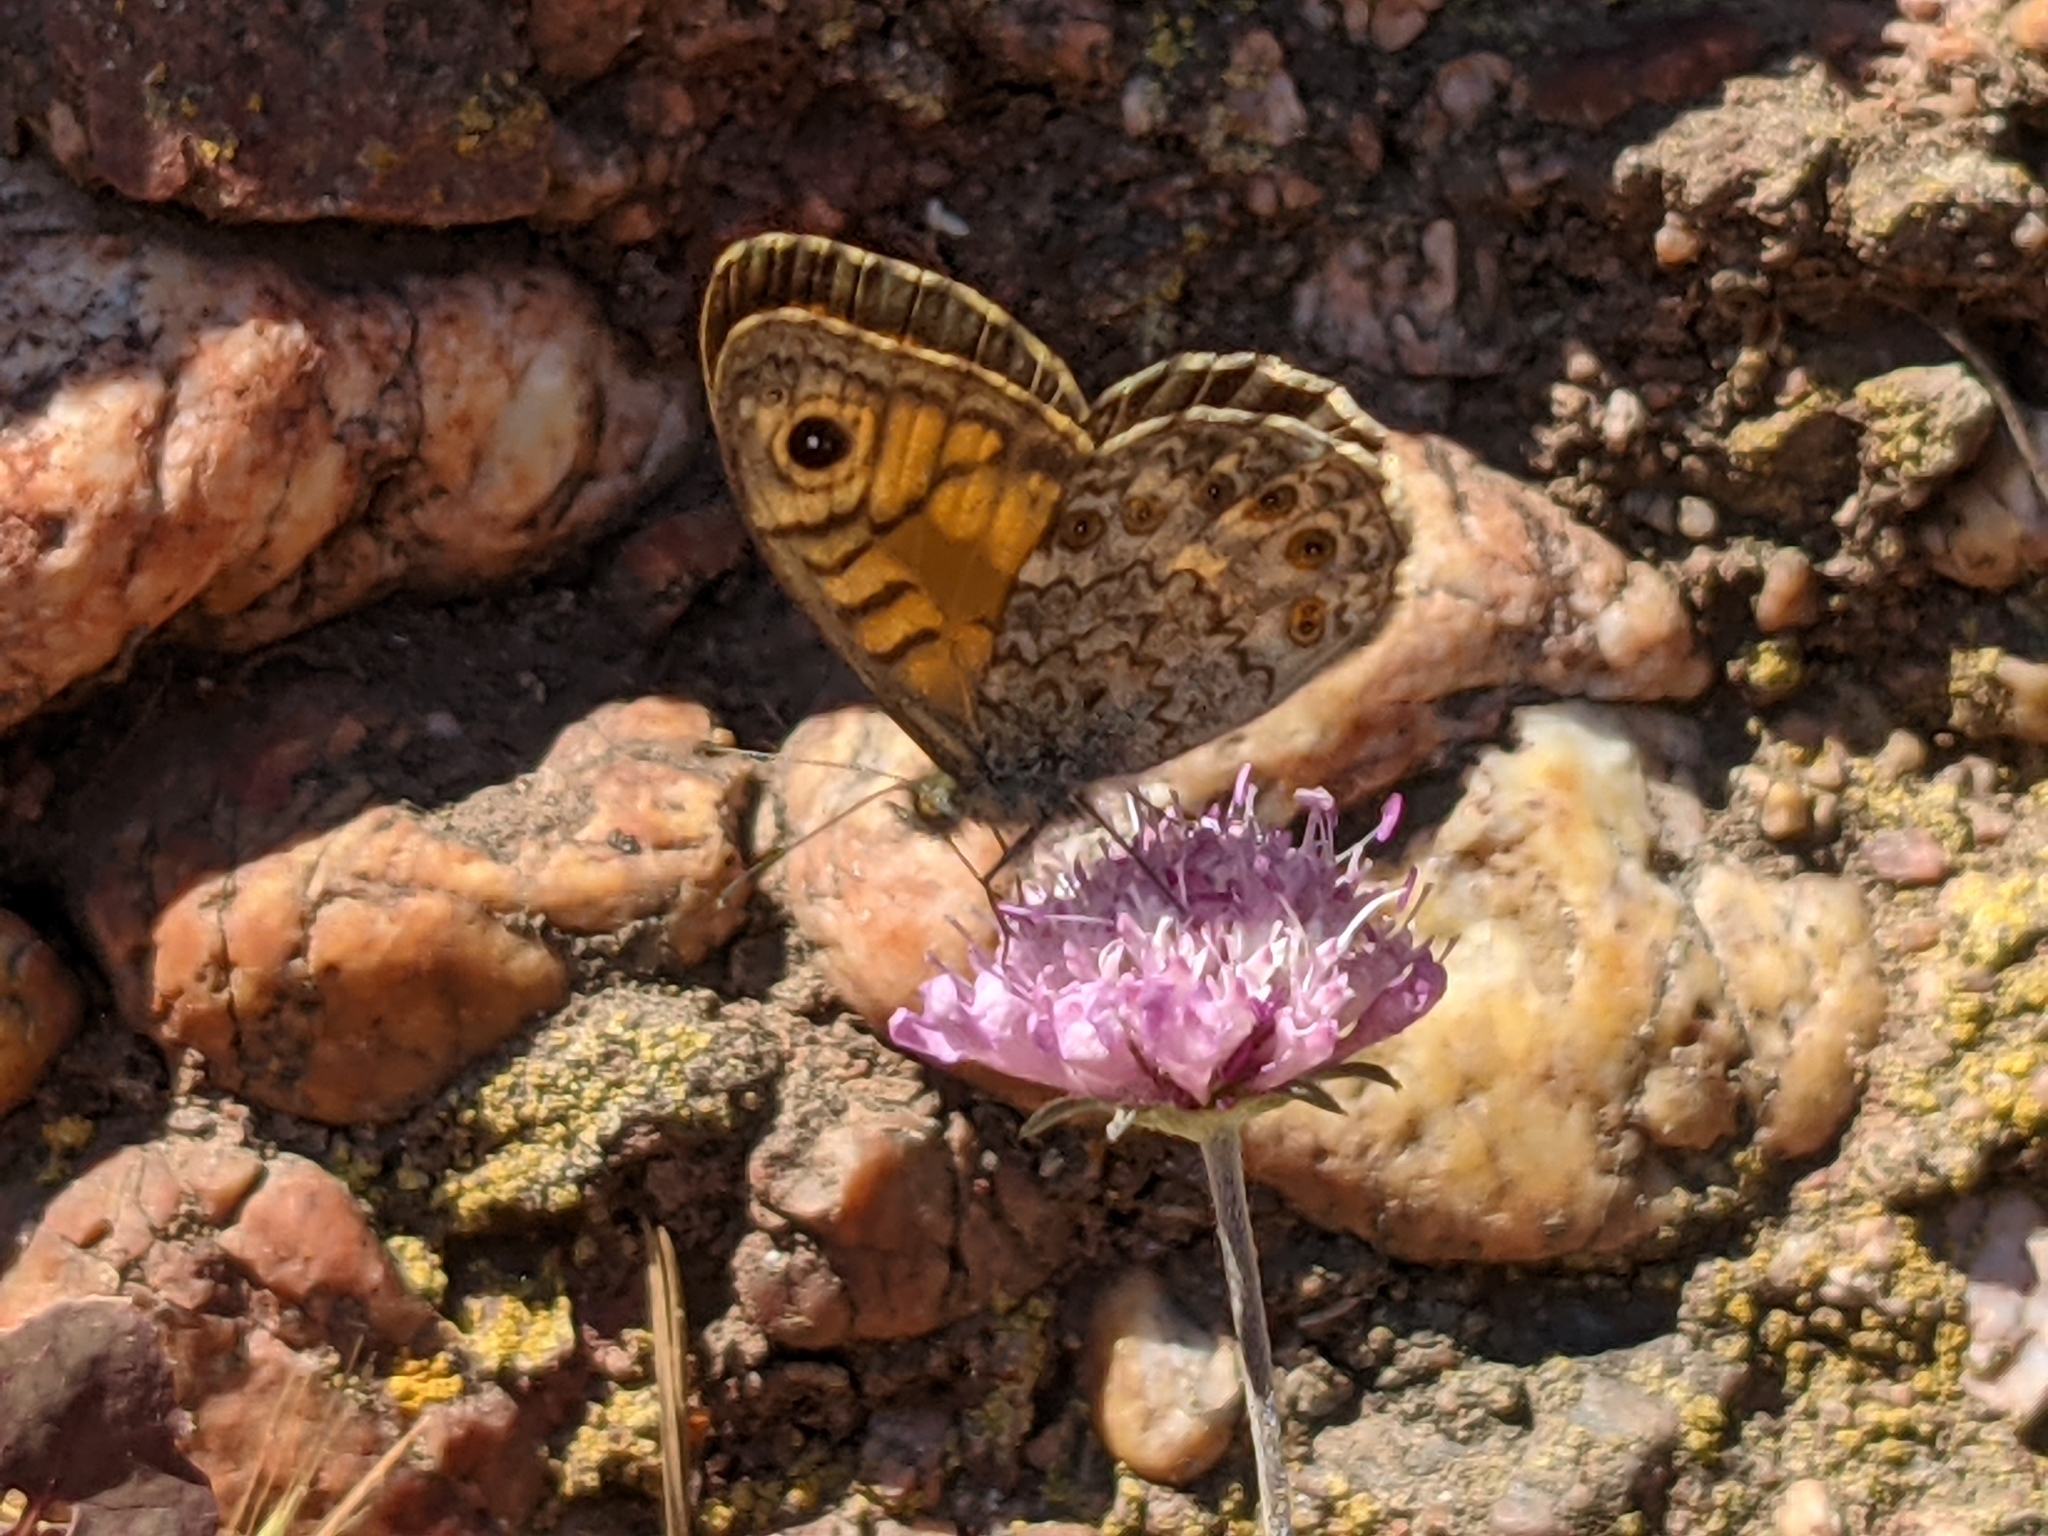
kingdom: Animalia
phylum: Arthropoda
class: Insecta
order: Lepidoptera
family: Nymphalidae
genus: Pararge
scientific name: Pararge Lasiommata megera
